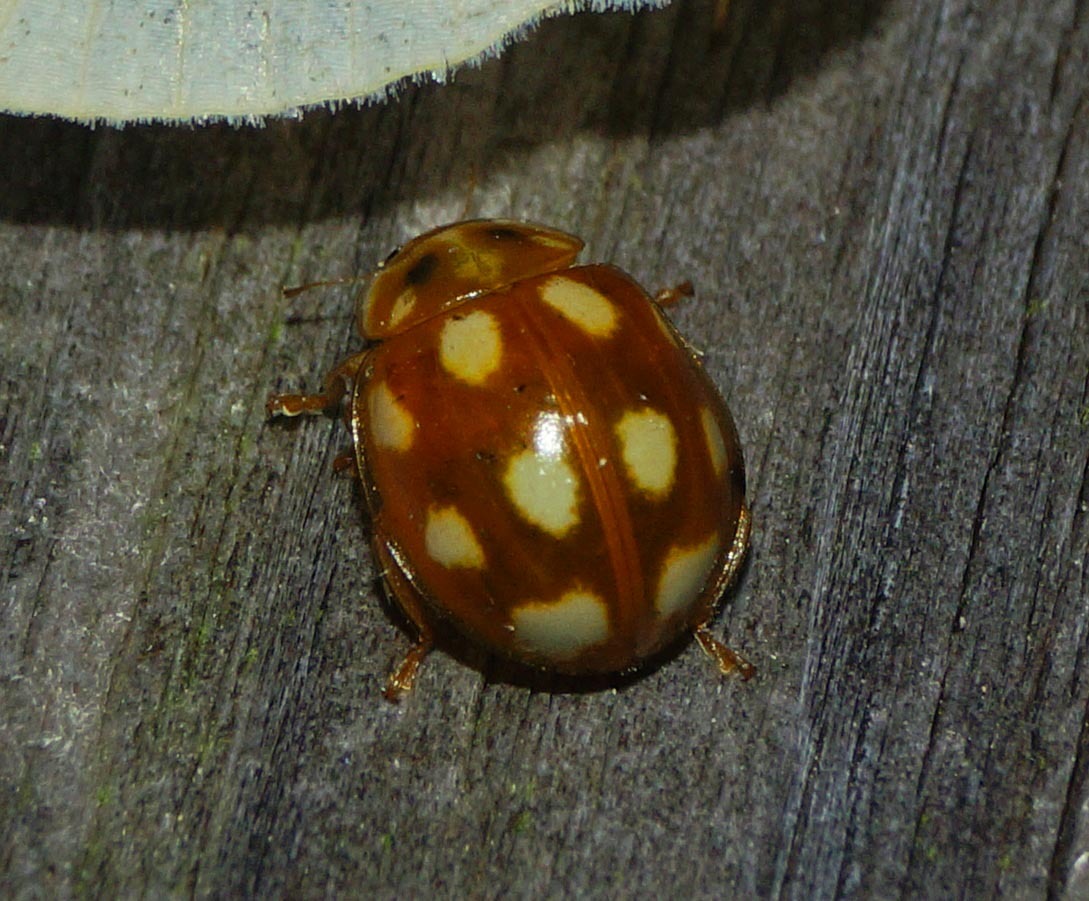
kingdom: Animalia
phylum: Arthropoda
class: Insecta
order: Coleoptera
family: Coccinellidae
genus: Calvia
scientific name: Calvia decemguttata
